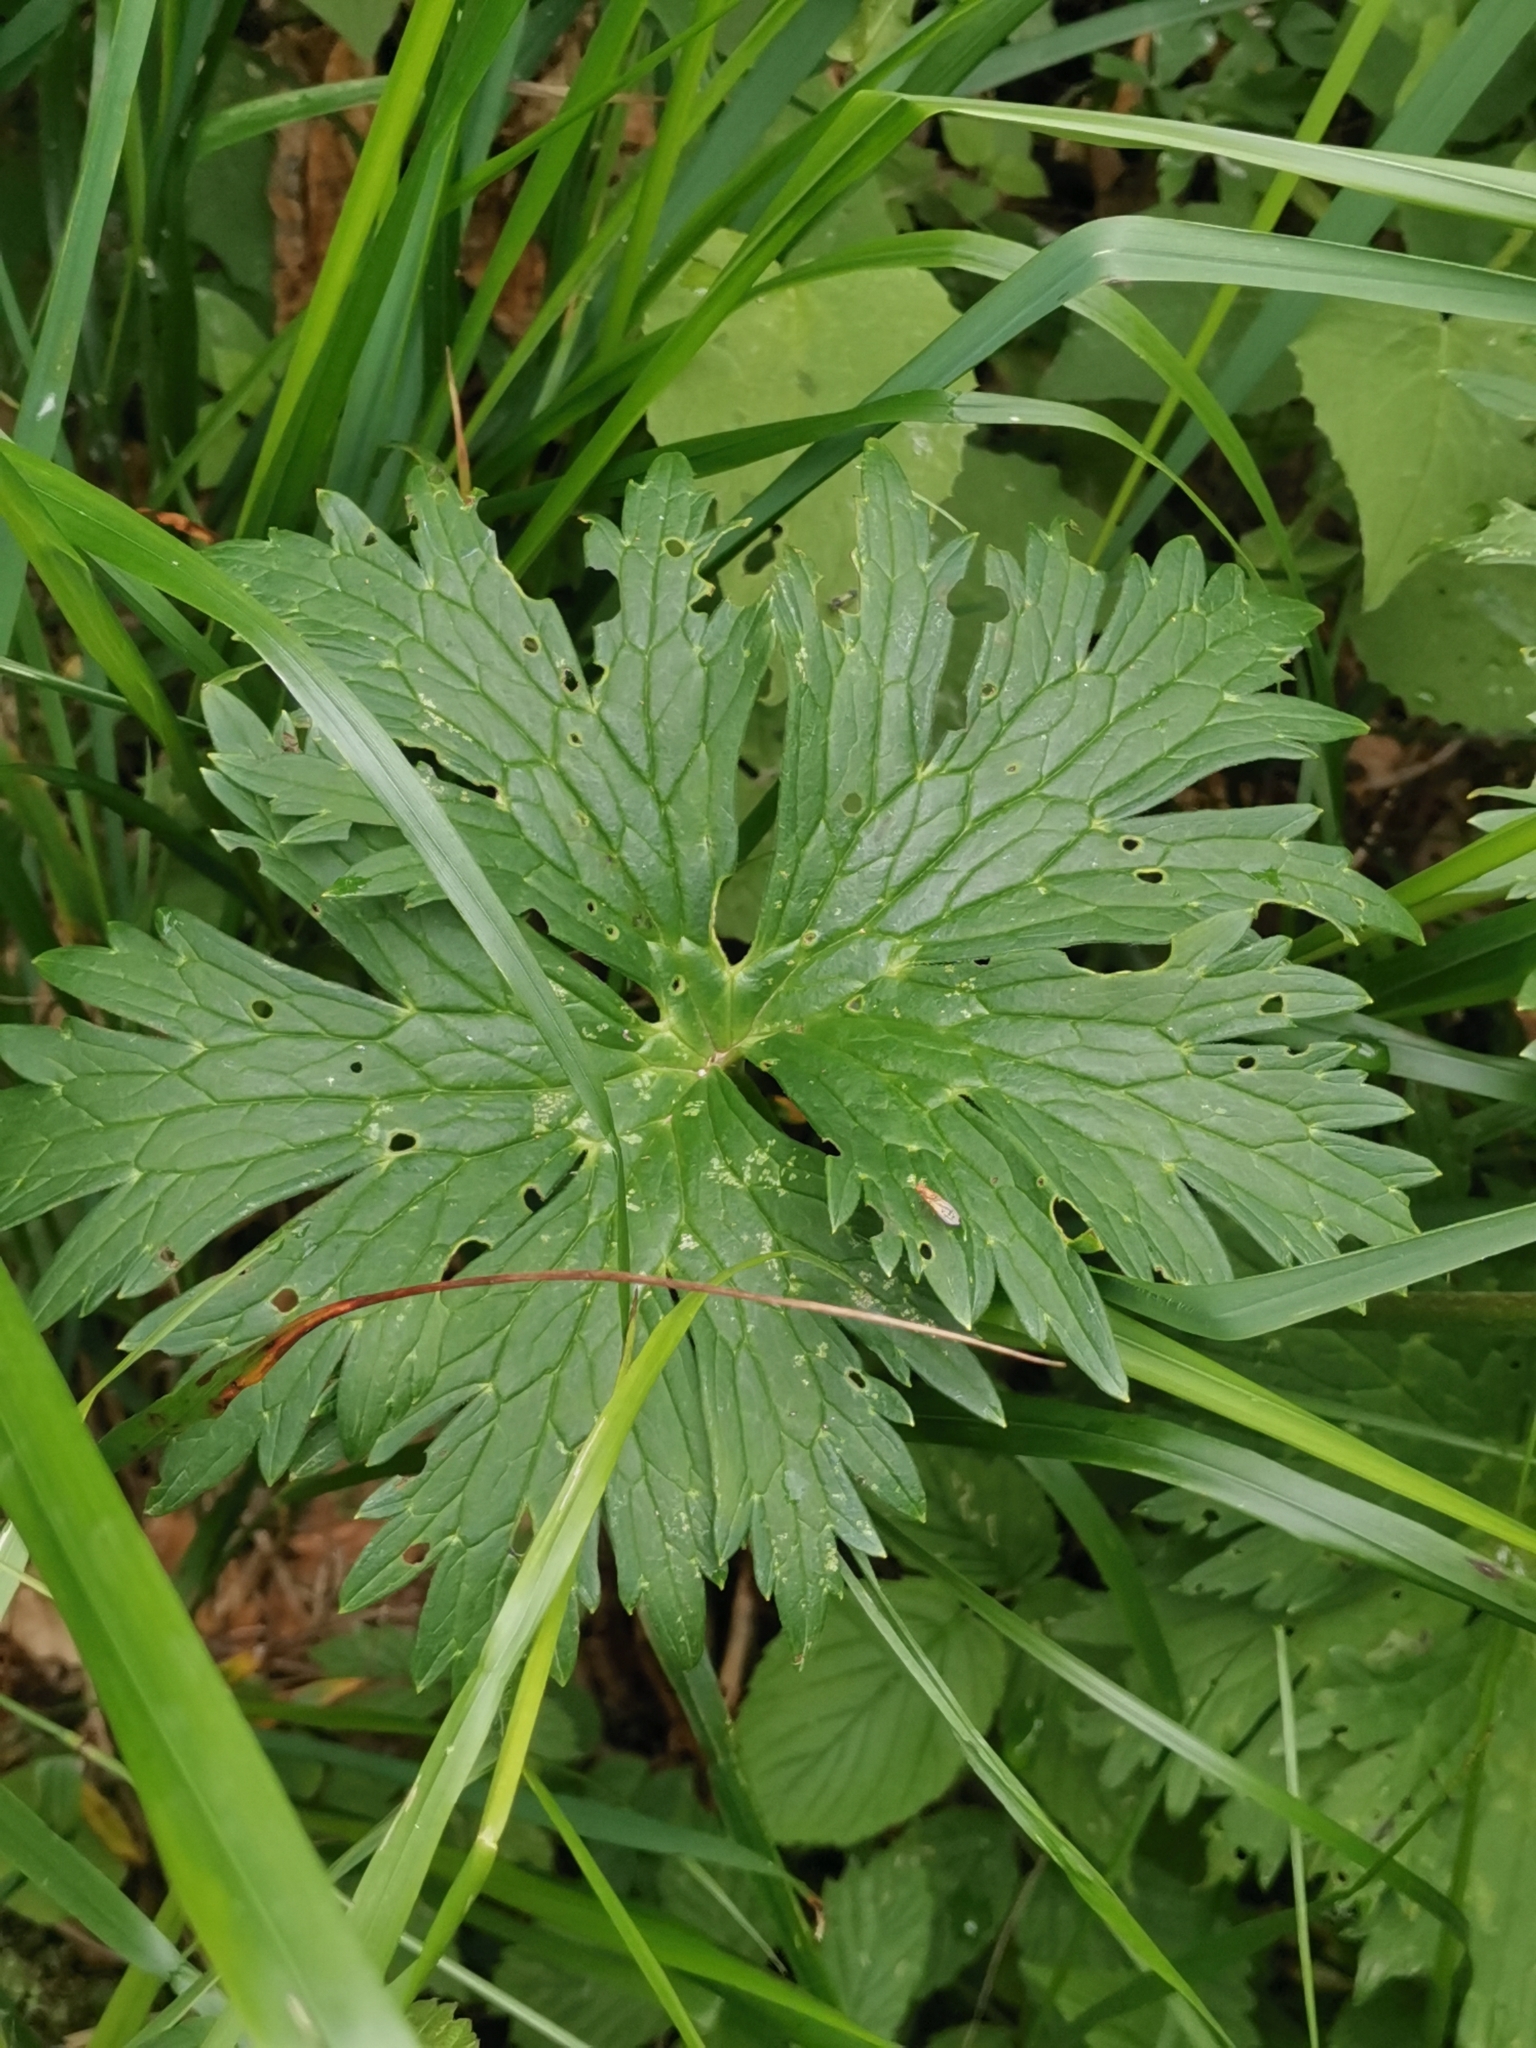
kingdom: Plantae
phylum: Tracheophyta
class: Magnoliopsida
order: Ranunculales
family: Ranunculaceae
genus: Aconitum
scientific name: Aconitum lycoctonum
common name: Wolf's-bane
